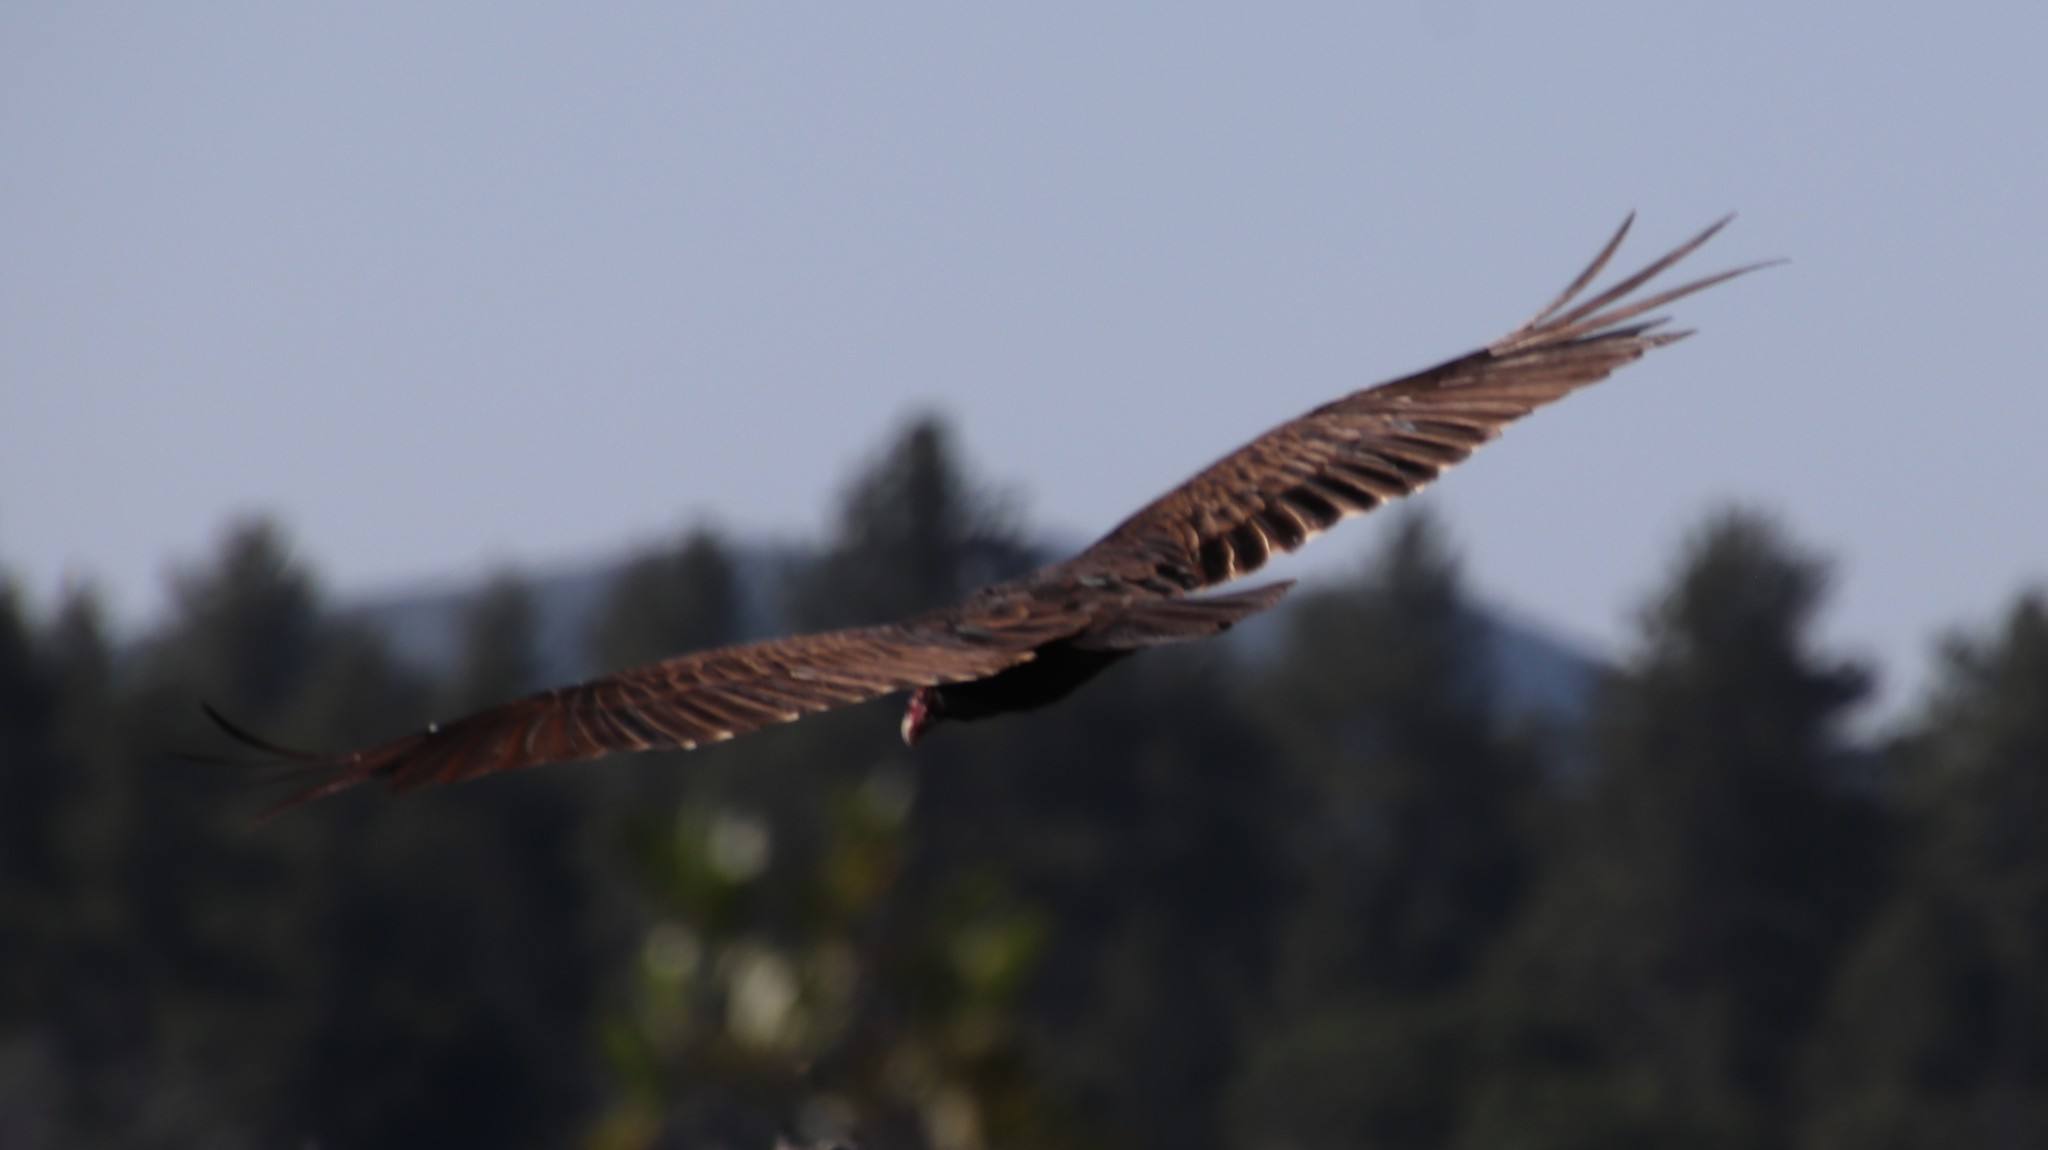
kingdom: Animalia
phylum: Chordata
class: Aves
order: Accipitriformes
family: Cathartidae
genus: Cathartes
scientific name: Cathartes aura
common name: Turkey vulture
